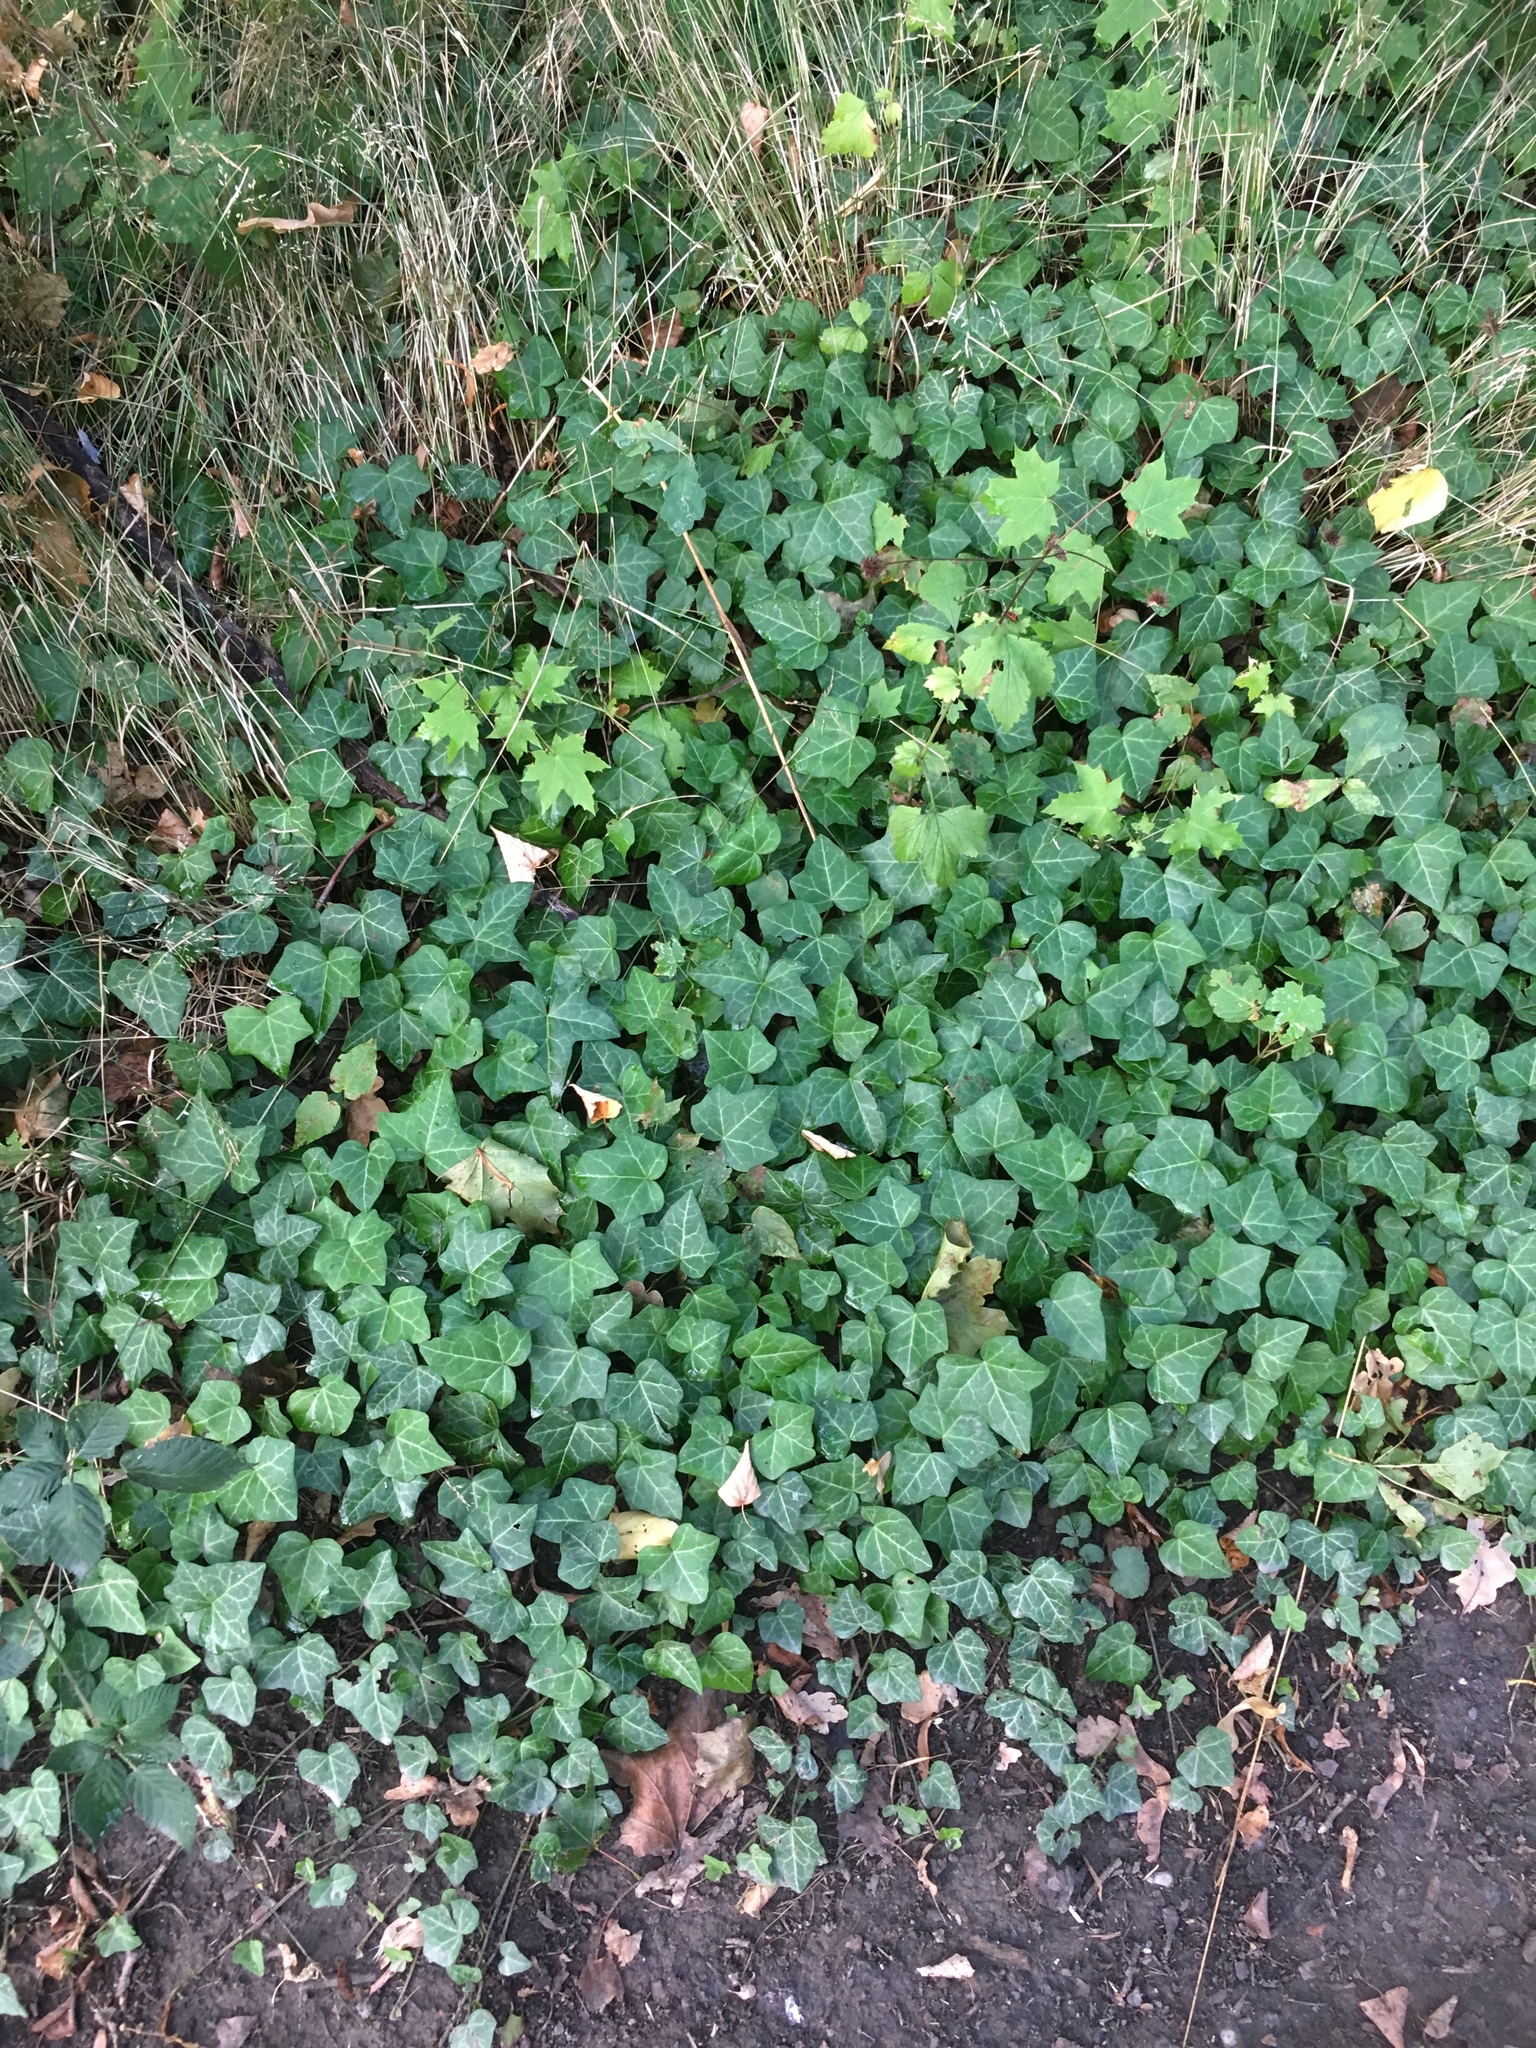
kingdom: Plantae
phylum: Tracheophyta
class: Magnoliopsida
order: Apiales
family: Araliaceae
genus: Hedera
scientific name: Hedera helix
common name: Ivy
